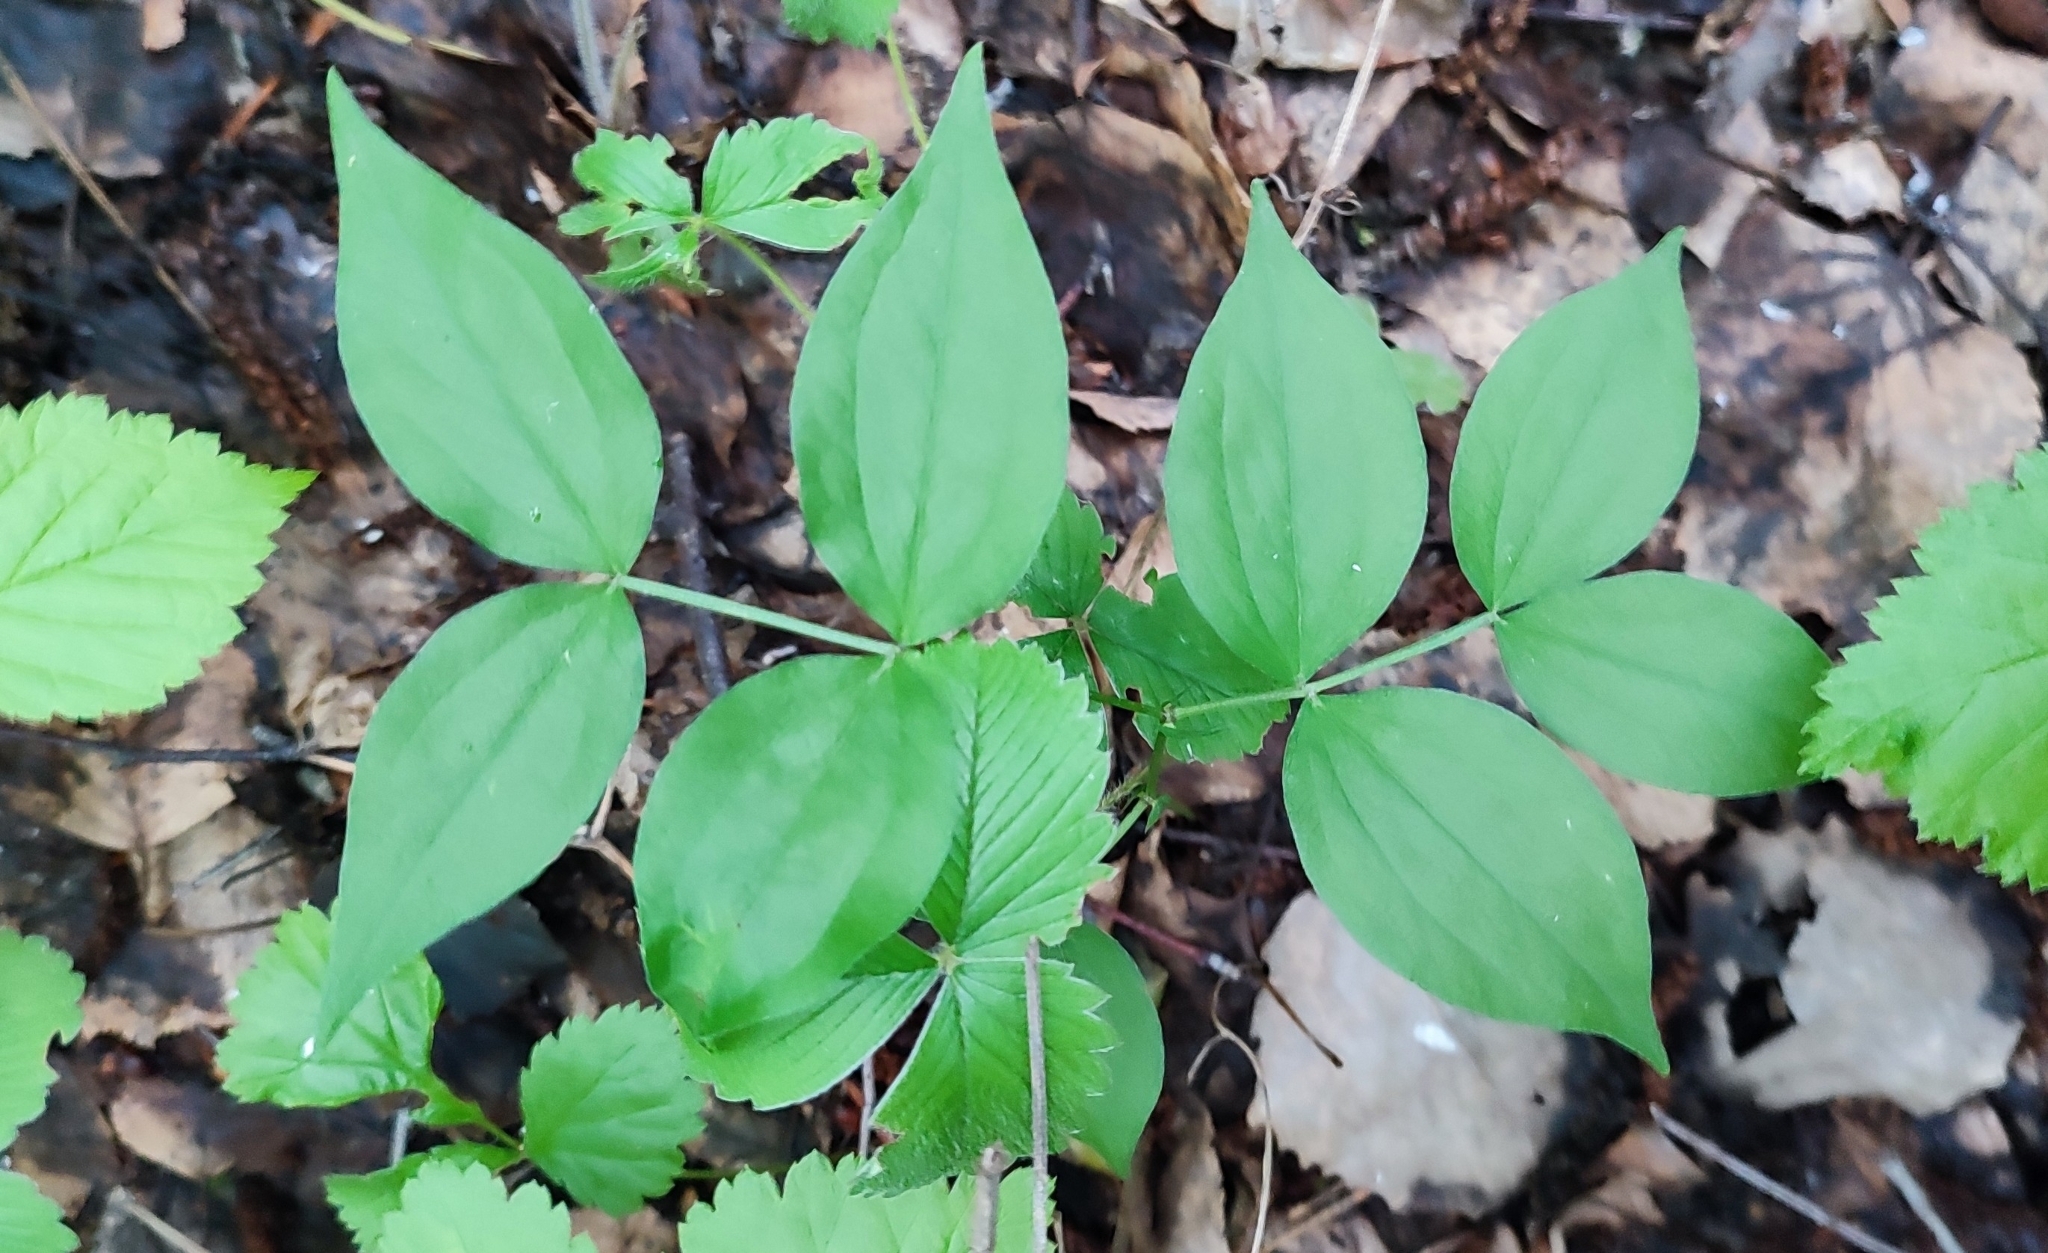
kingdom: Plantae
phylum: Tracheophyta
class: Magnoliopsida
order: Fabales
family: Fabaceae
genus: Lathyrus
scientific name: Lathyrus vernus
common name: Spring pea
